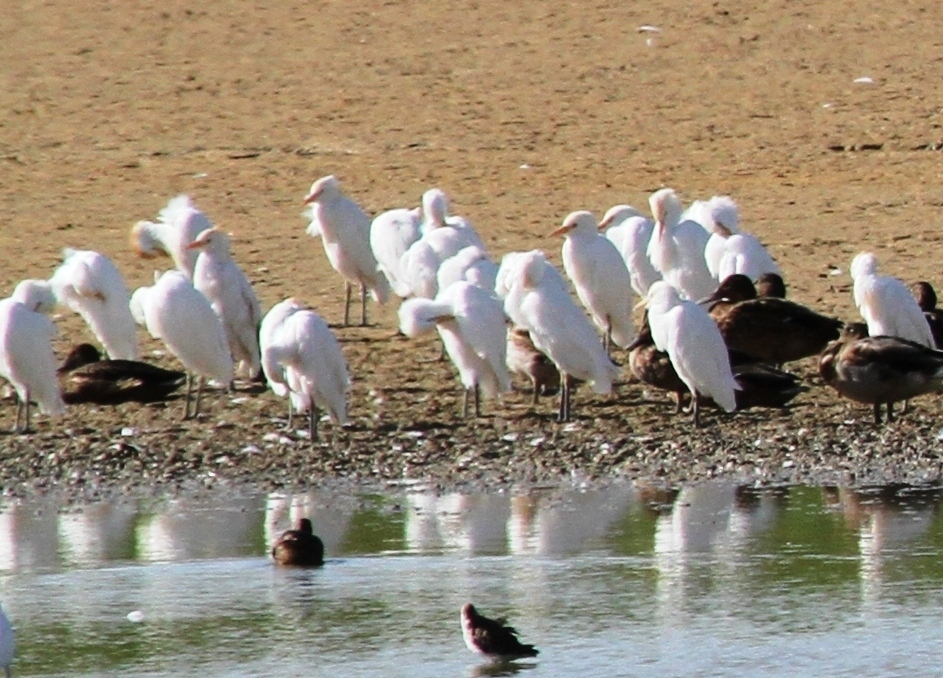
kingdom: Animalia
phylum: Chordata
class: Aves
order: Pelecaniformes
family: Ardeidae
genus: Bubulcus
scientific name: Bubulcus ibis
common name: Cattle egret
